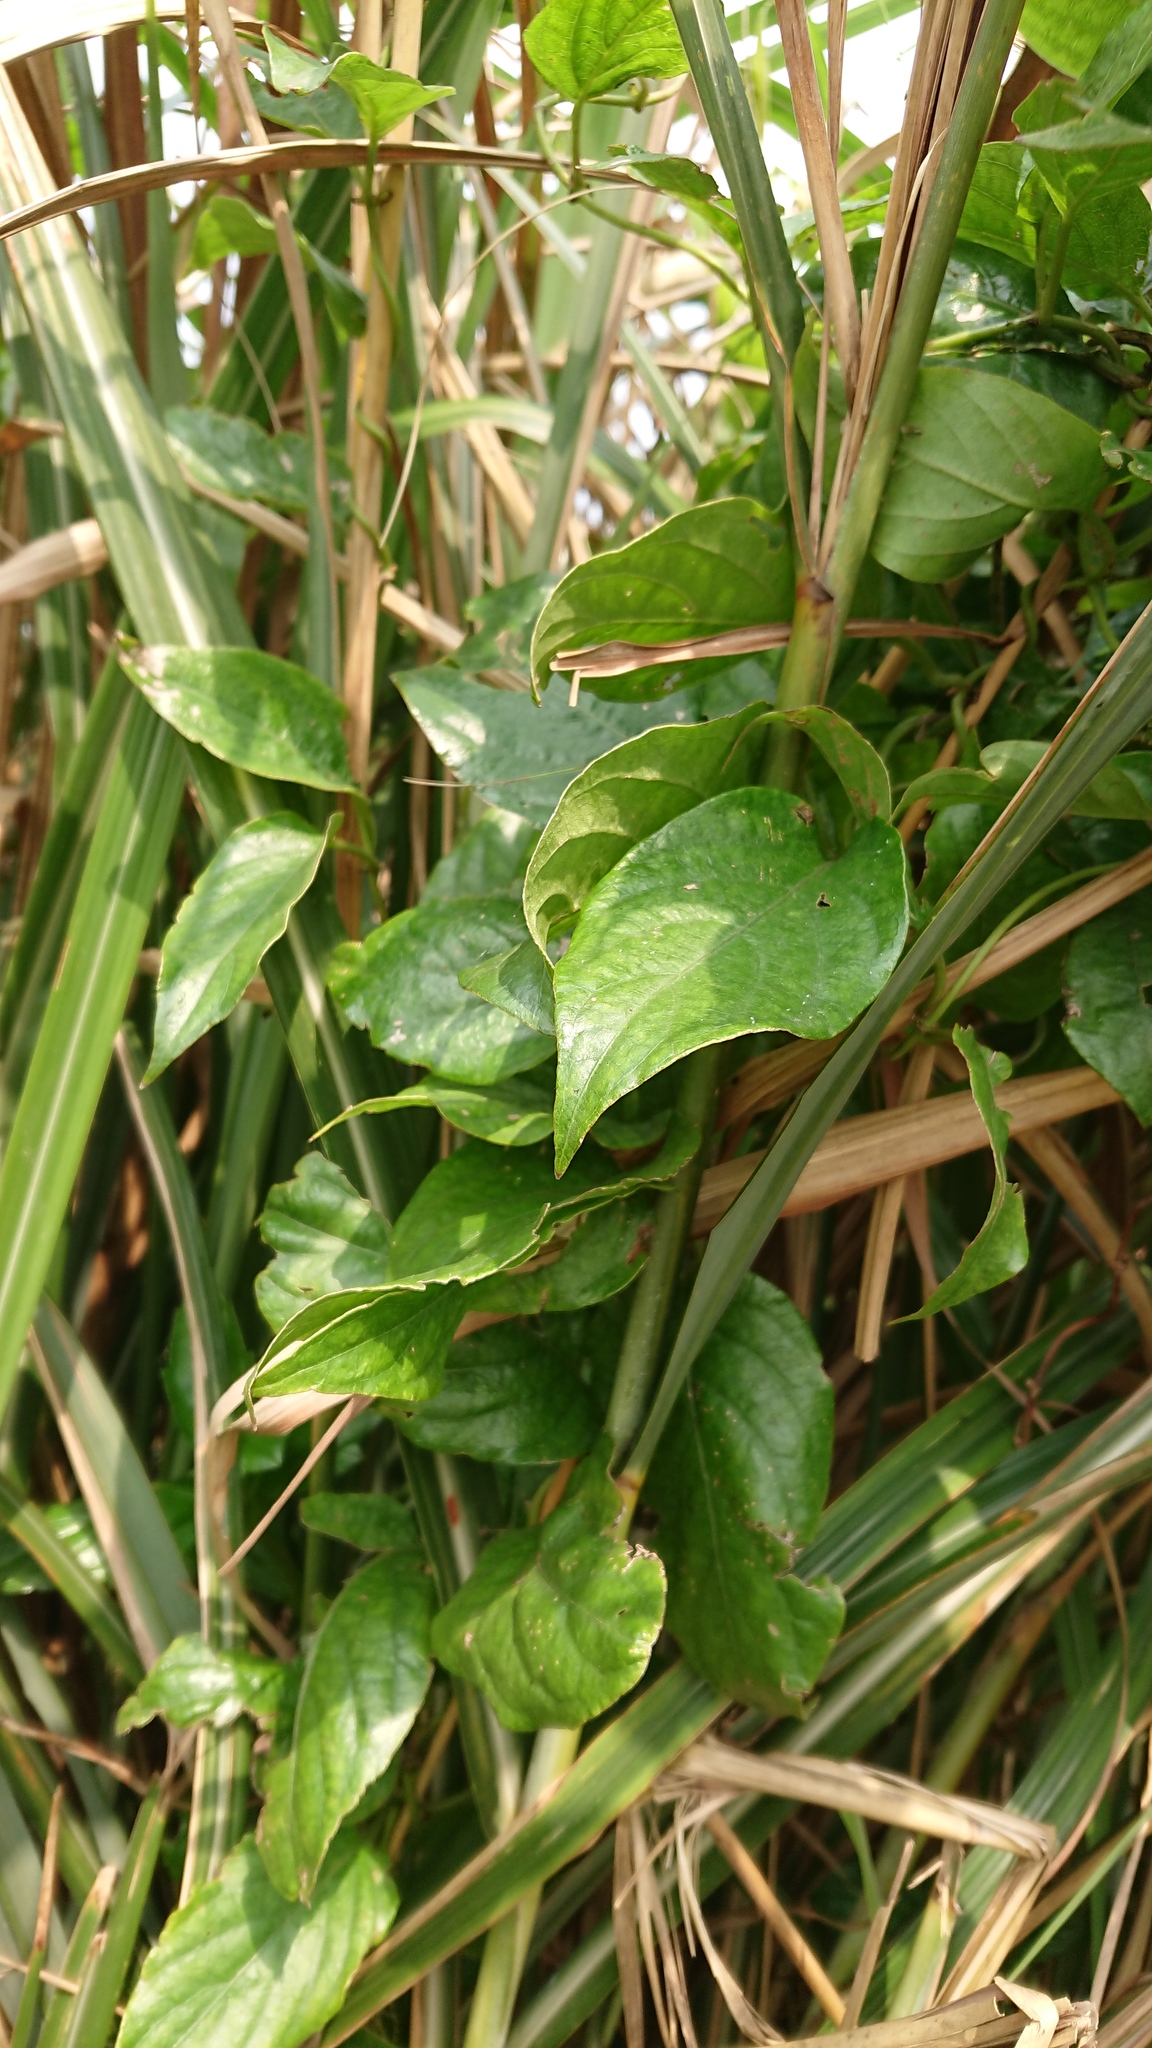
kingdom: Plantae
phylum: Tracheophyta
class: Magnoliopsida
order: Gentianales
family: Rubiaceae
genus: Paederia
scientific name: Paederia foetida
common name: Stinkvine
